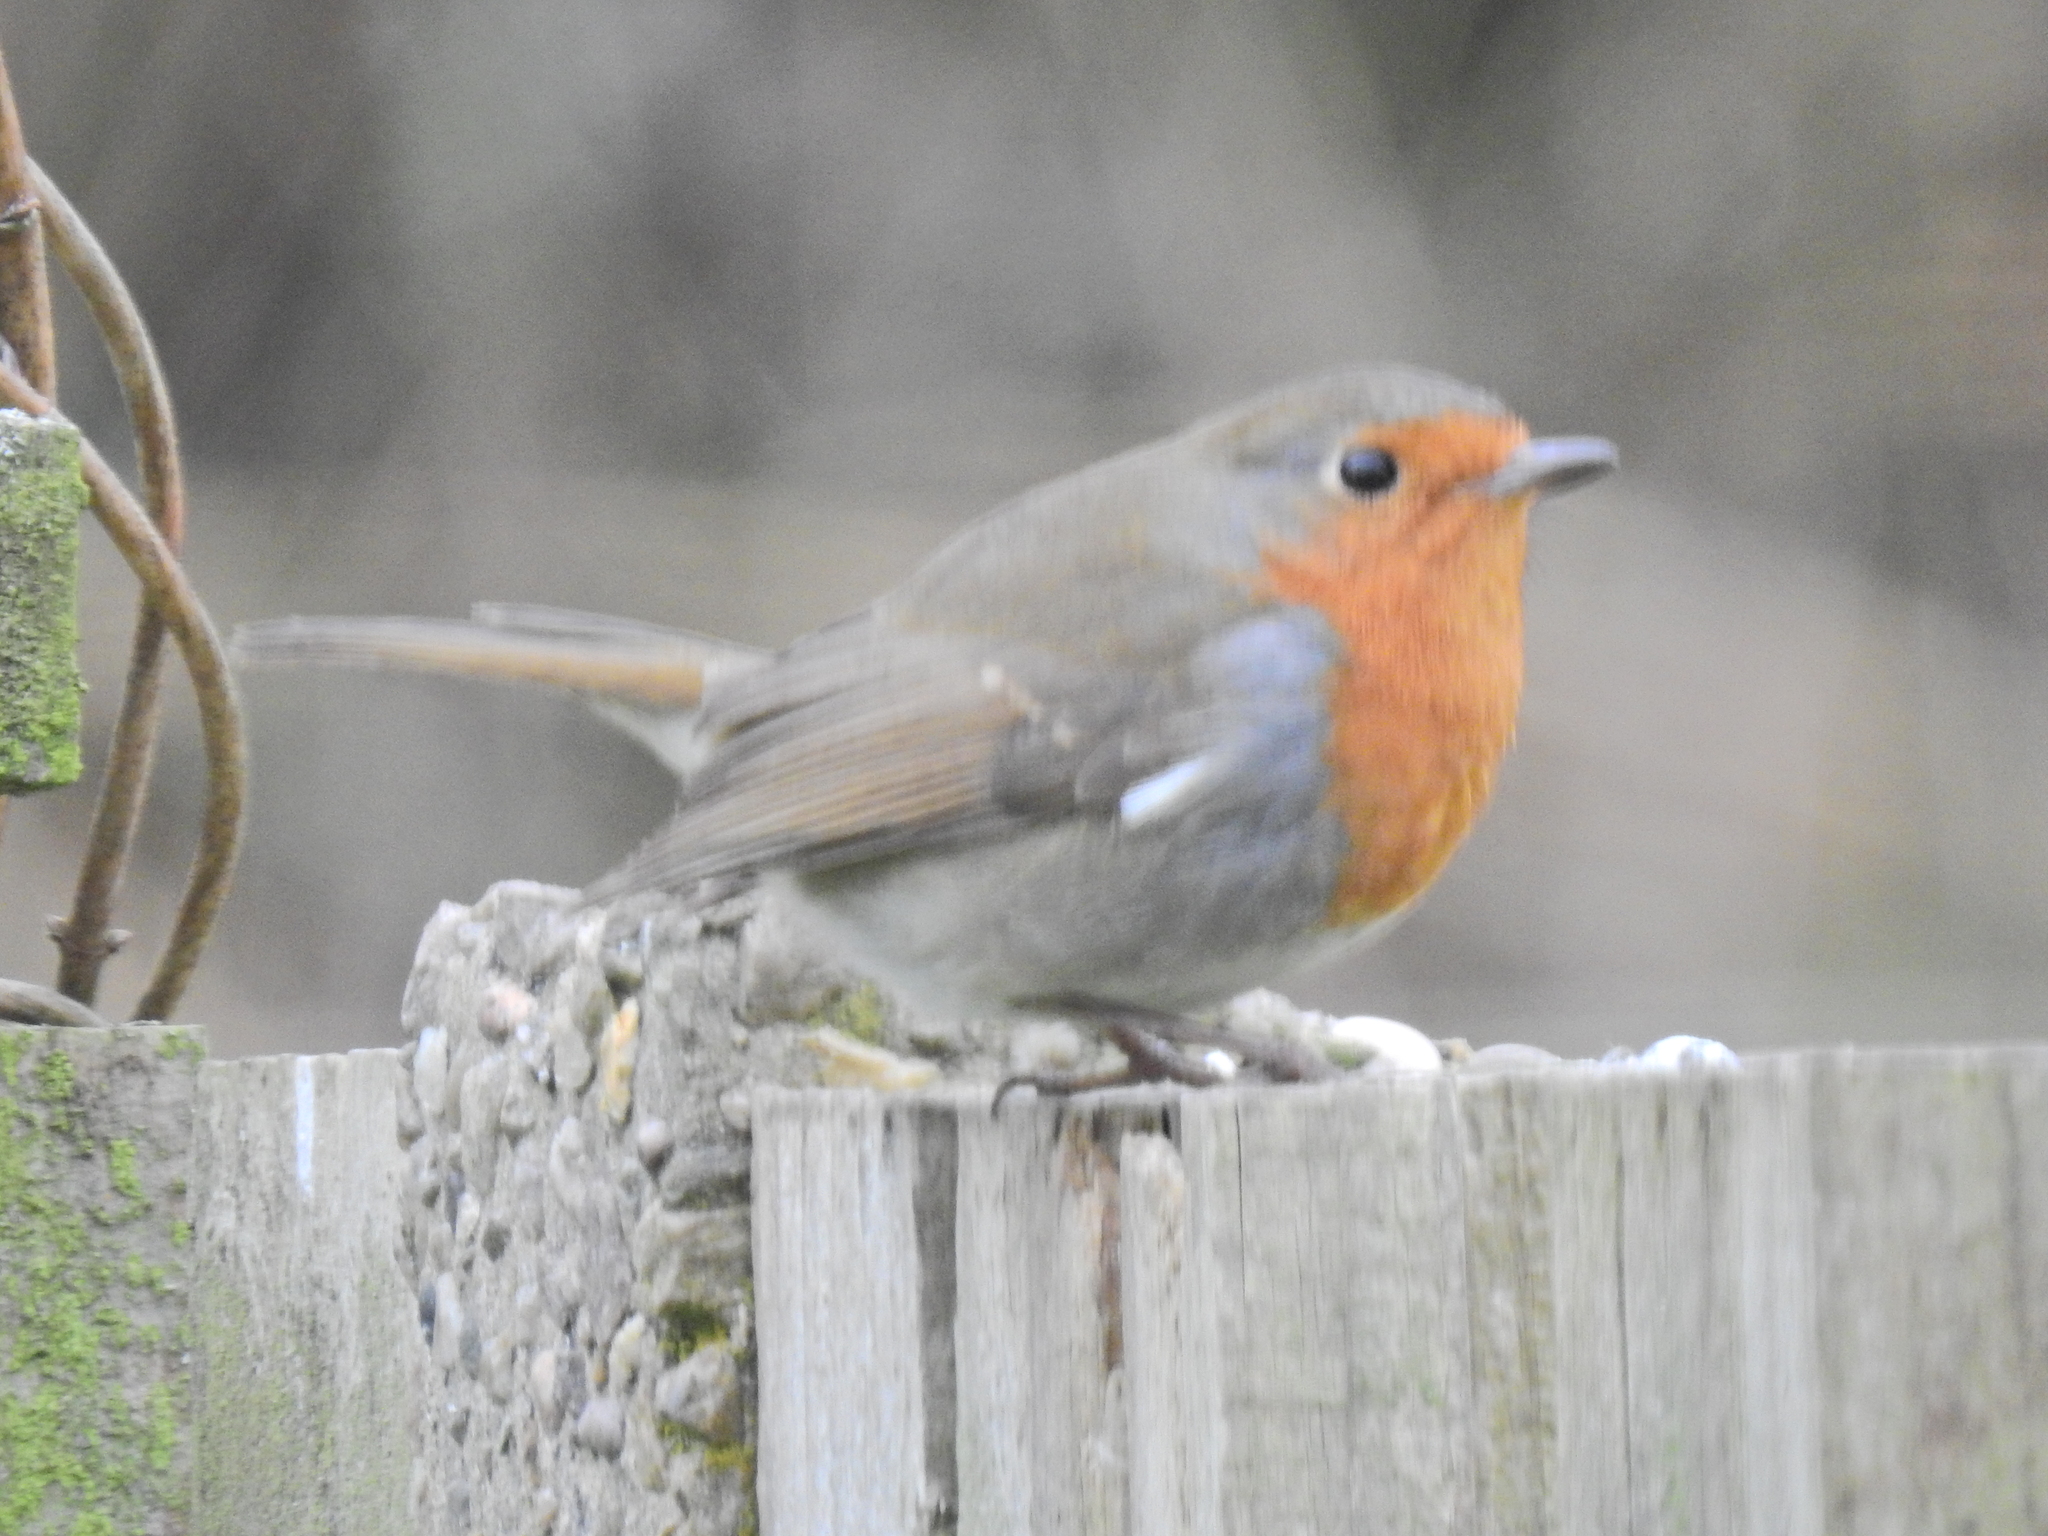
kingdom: Animalia
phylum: Chordata
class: Aves
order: Passeriformes
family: Muscicapidae
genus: Erithacus
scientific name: Erithacus rubecula
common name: European robin
